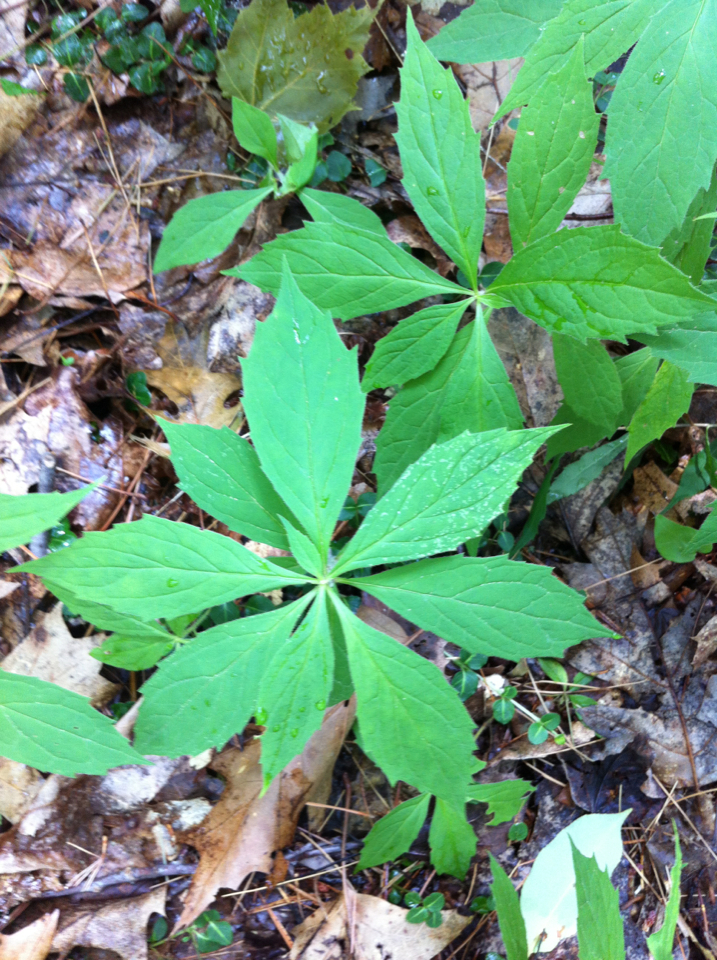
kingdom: Plantae
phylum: Tracheophyta
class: Magnoliopsida
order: Asterales
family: Asteraceae
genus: Oclemena
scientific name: Oclemena acuminata
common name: Mountain aster
